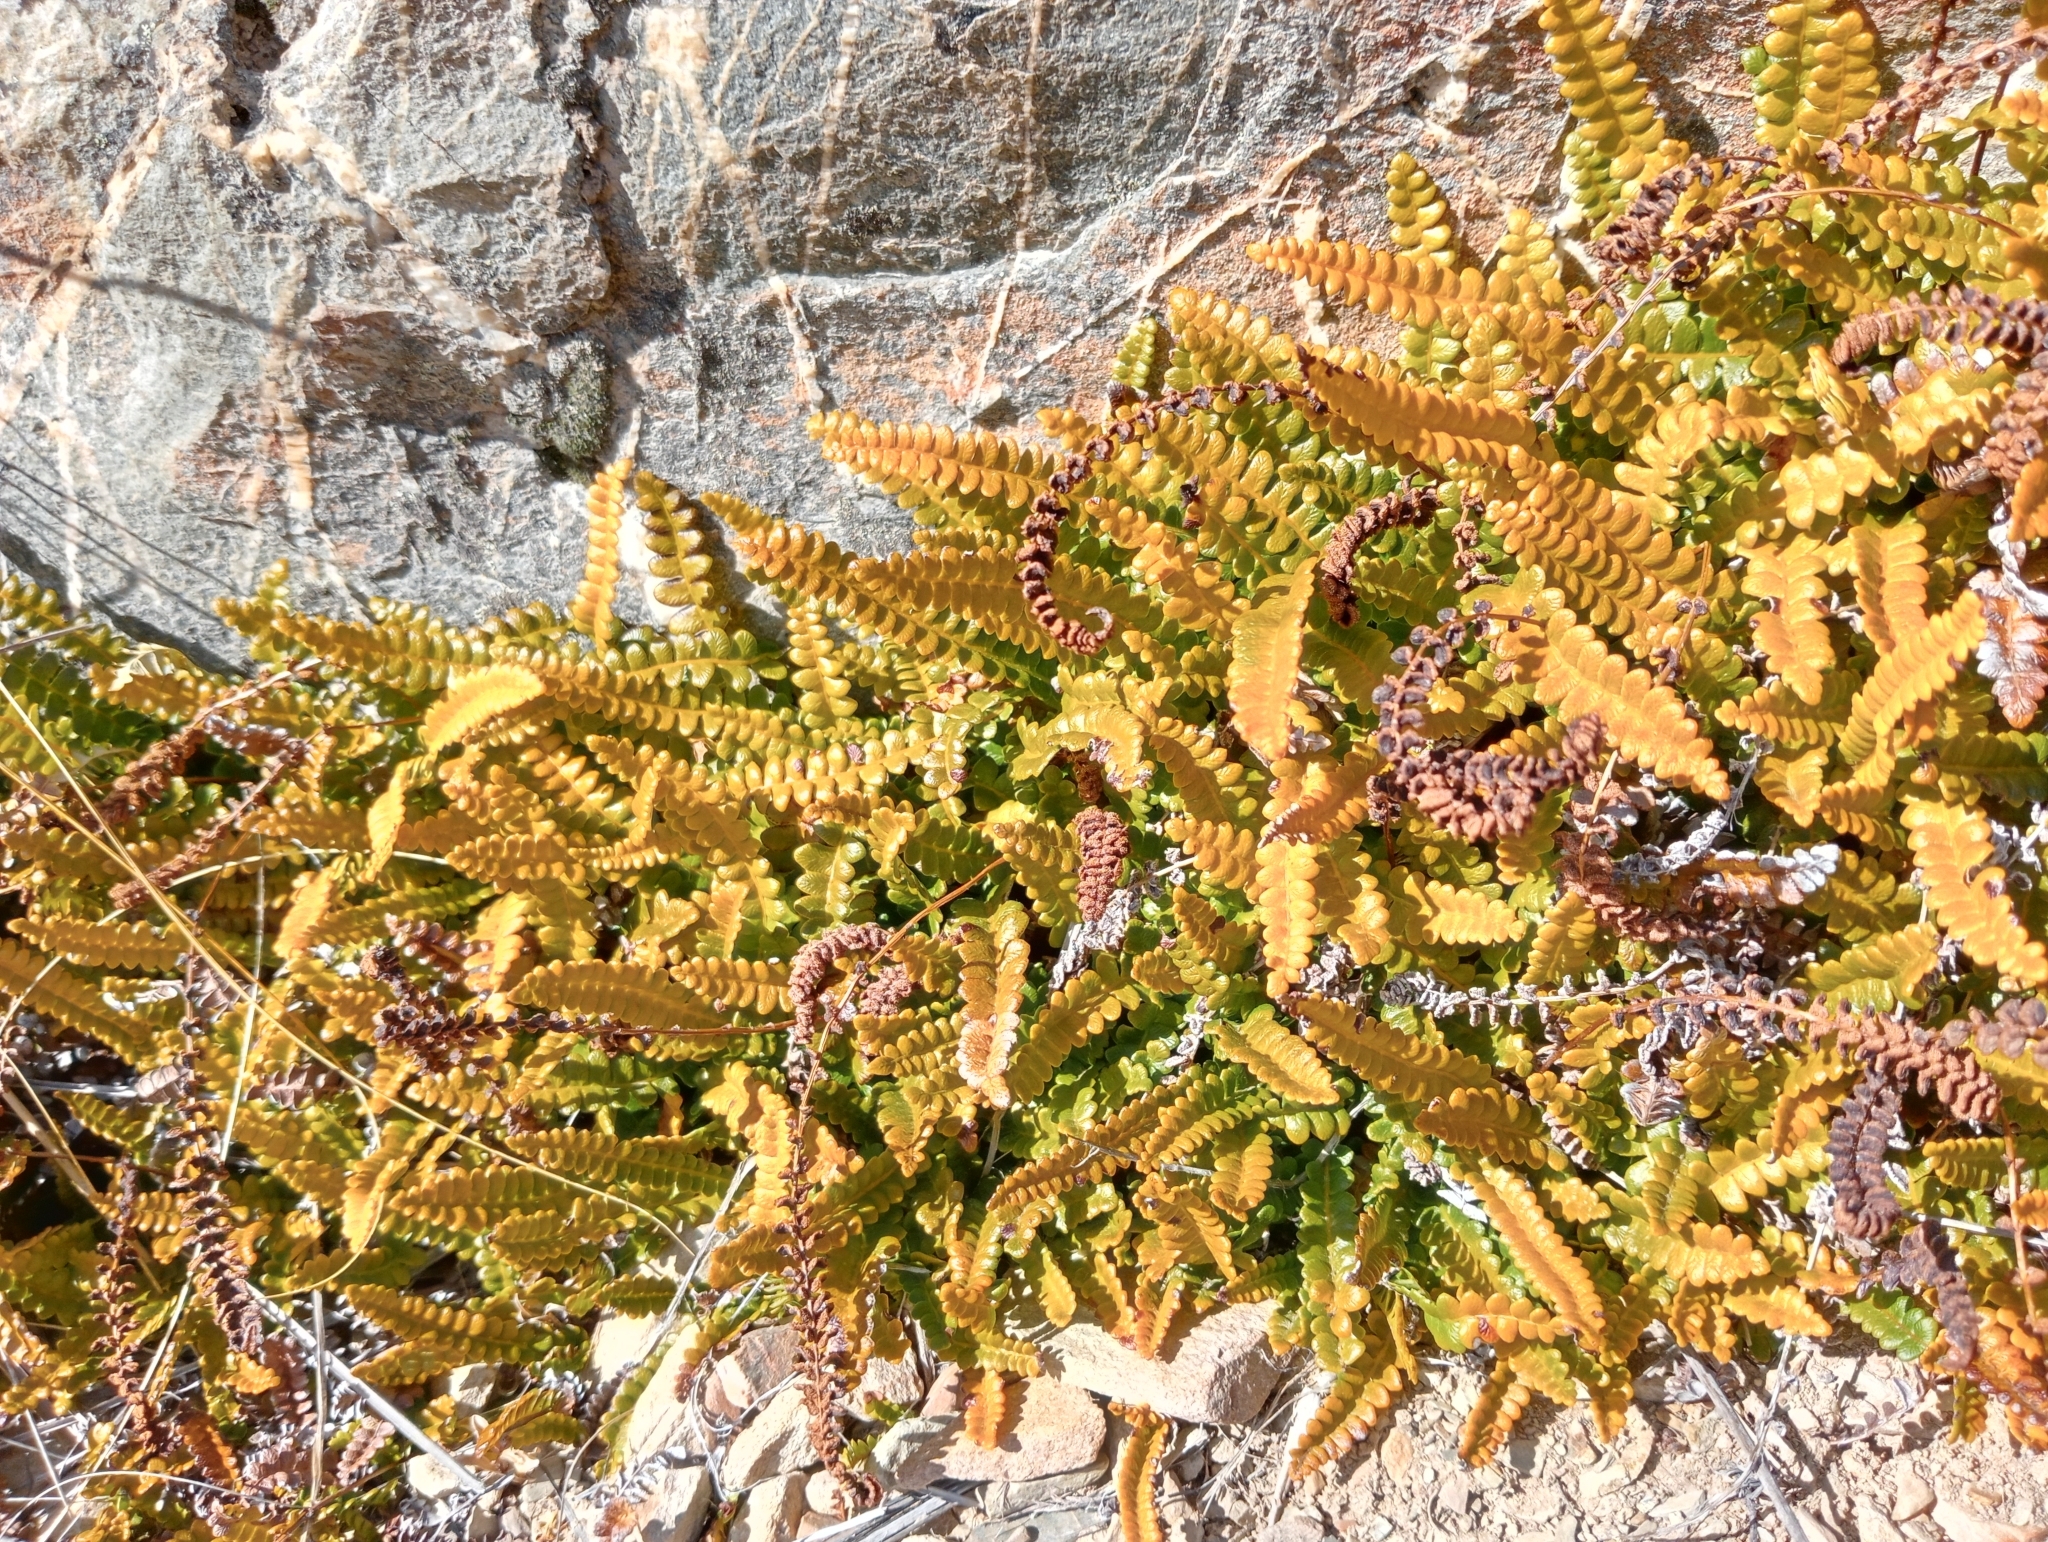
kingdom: Plantae
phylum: Tracheophyta
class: Polypodiopsida
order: Polypodiales
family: Blechnaceae
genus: Austroblechnum
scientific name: Austroblechnum penna-marina
